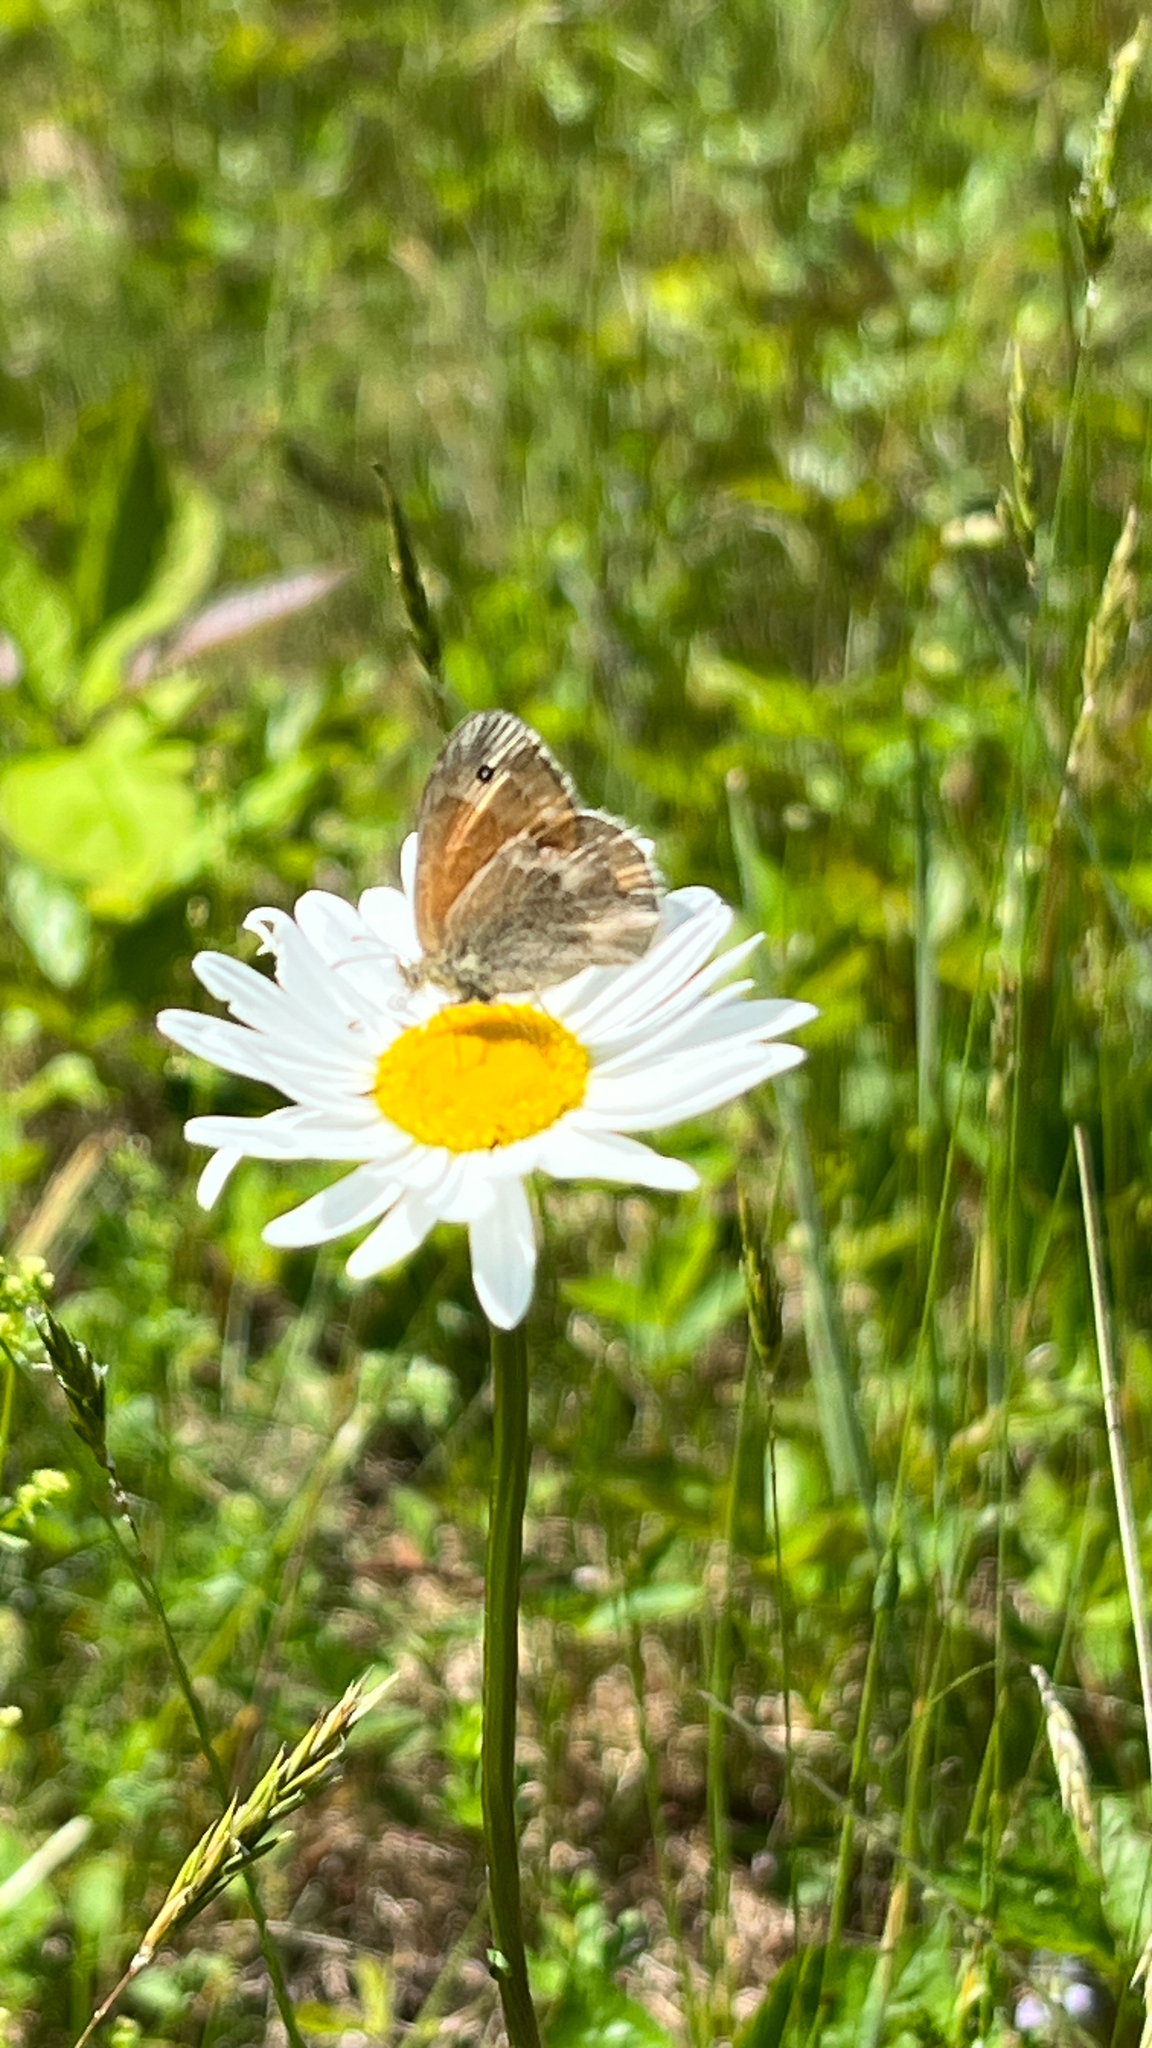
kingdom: Plantae
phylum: Tracheophyta
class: Magnoliopsida
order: Asterales
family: Asteraceae
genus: Leucanthemum
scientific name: Leucanthemum vulgare
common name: Oxeye daisy
